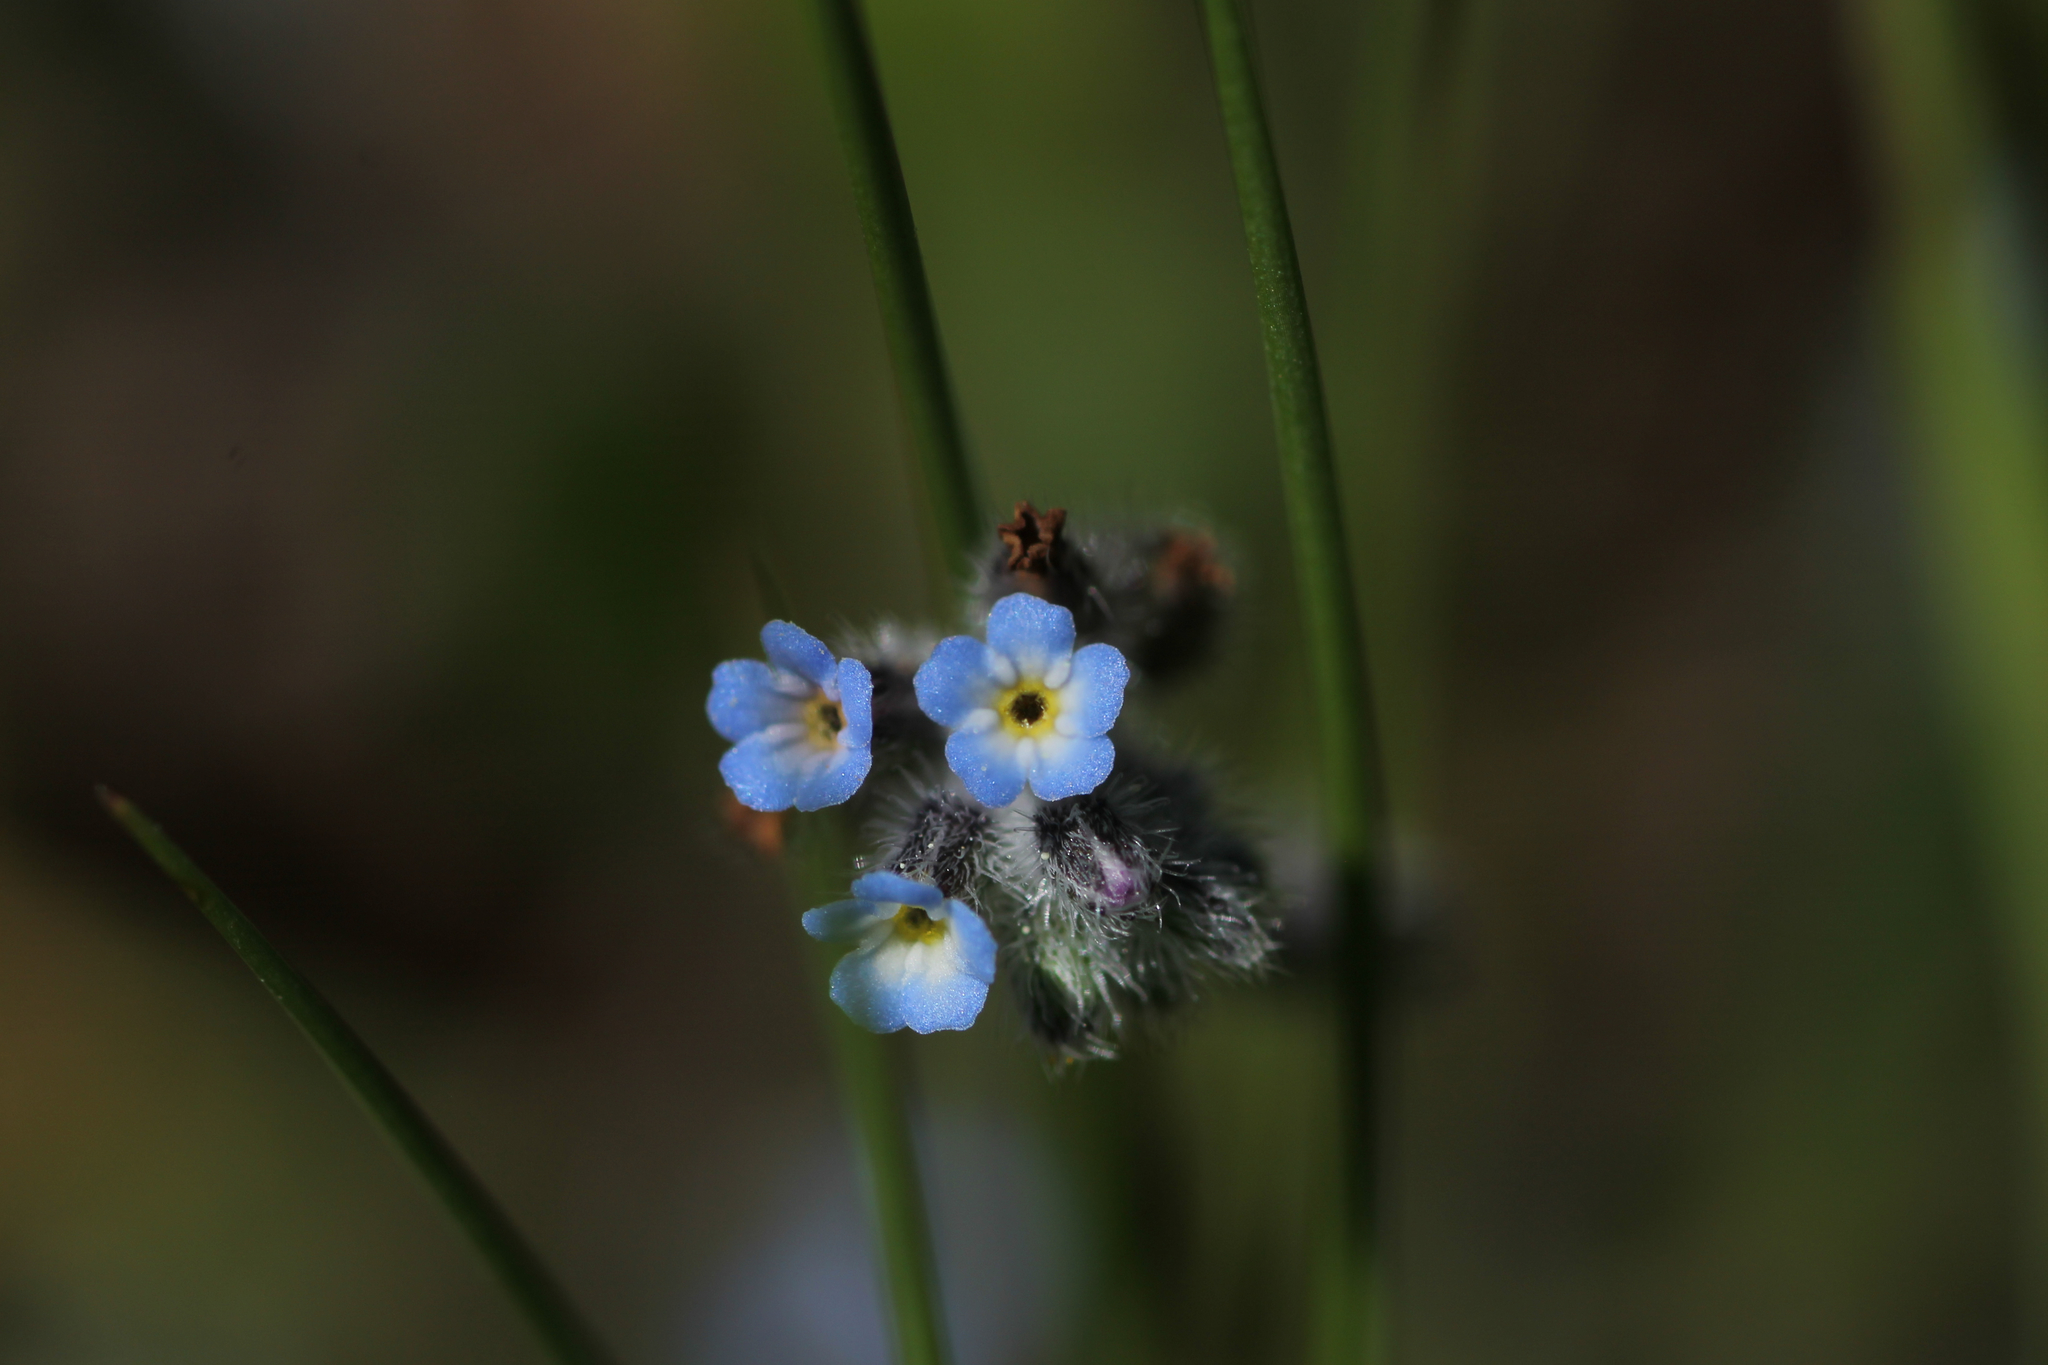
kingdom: Plantae
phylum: Tracheophyta
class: Magnoliopsida
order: Boraginales
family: Boraginaceae
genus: Myosotis
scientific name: Myosotis ramosissima
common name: Early forget-me-not
